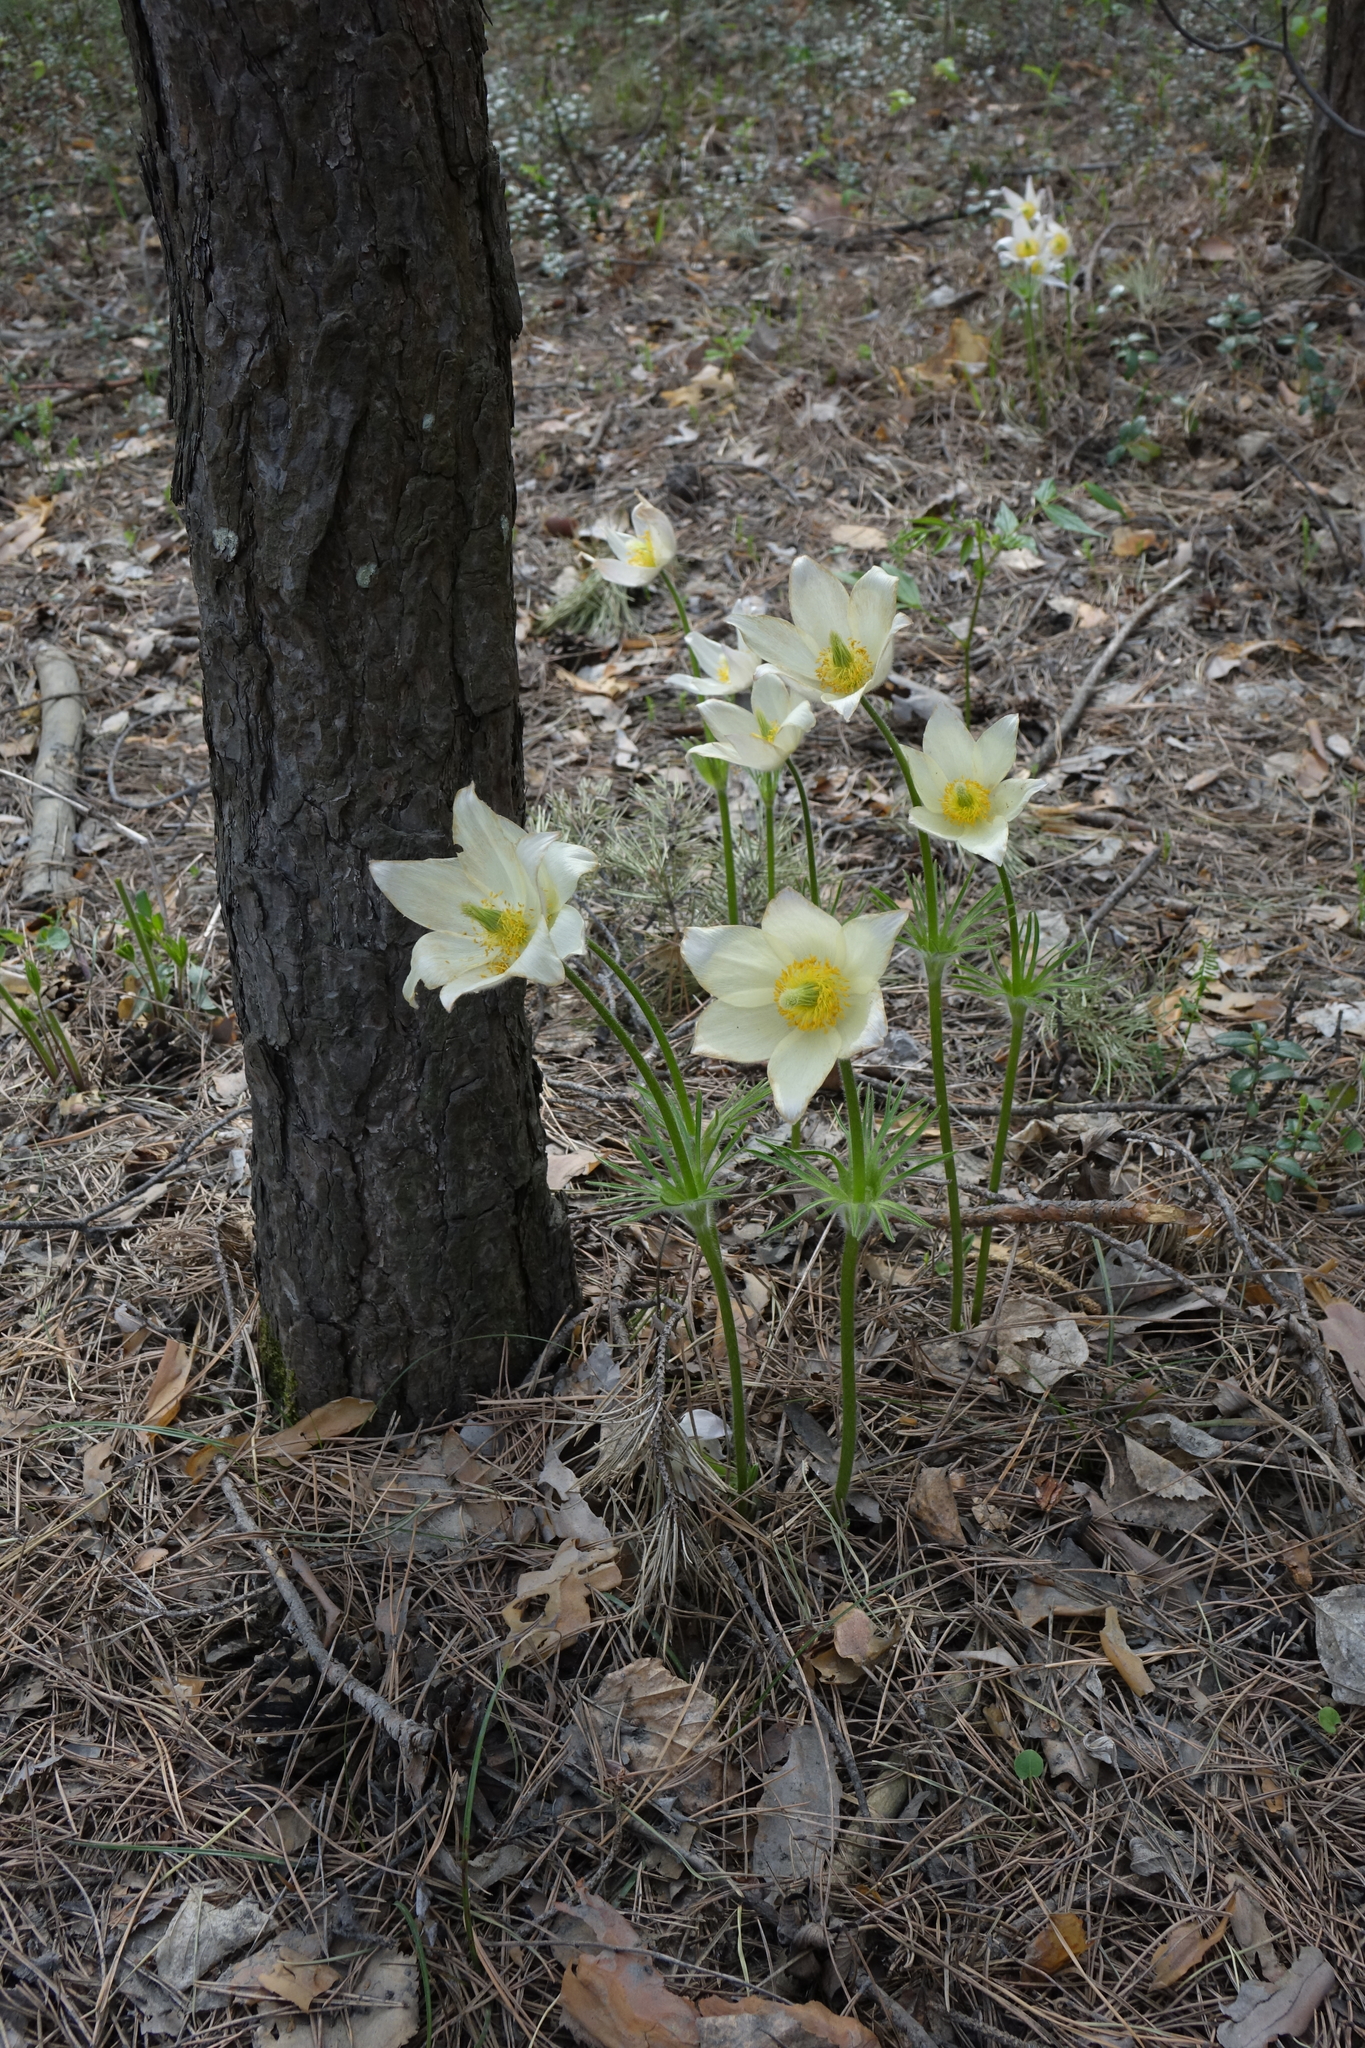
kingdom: Plantae
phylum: Tracheophyta
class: Magnoliopsida
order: Ranunculales
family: Ranunculaceae
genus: Pulsatilla
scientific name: Pulsatilla patens
